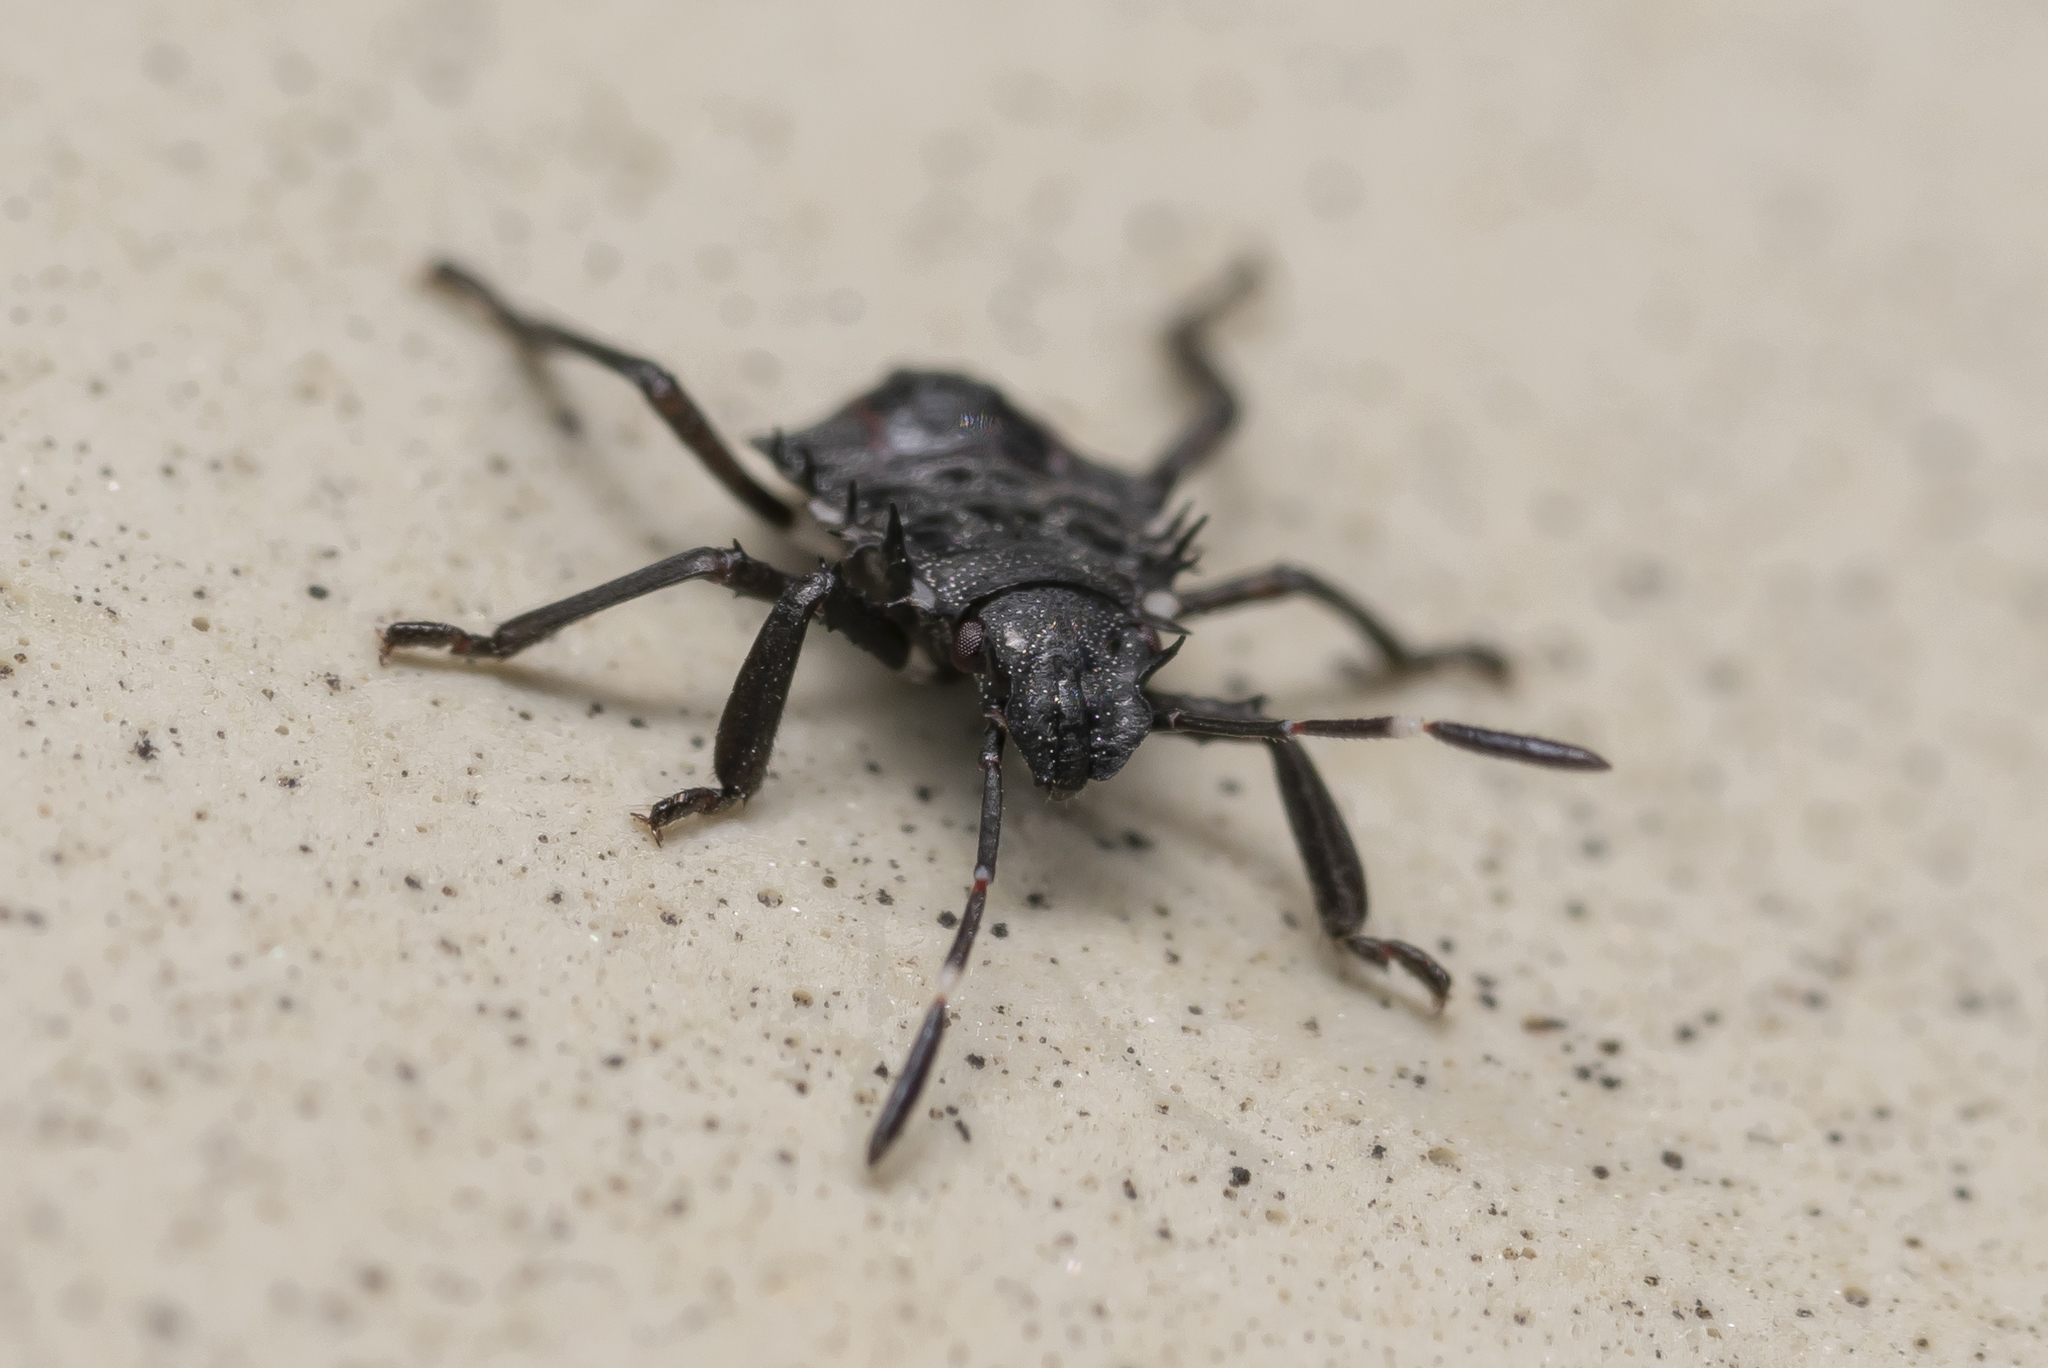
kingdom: Animalia
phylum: Arthropoda
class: Insecta
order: Hemiptera
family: Pentatomidae
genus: Halyomorpha
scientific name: Halyomorpha halys
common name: Brown marmorated stink bug
